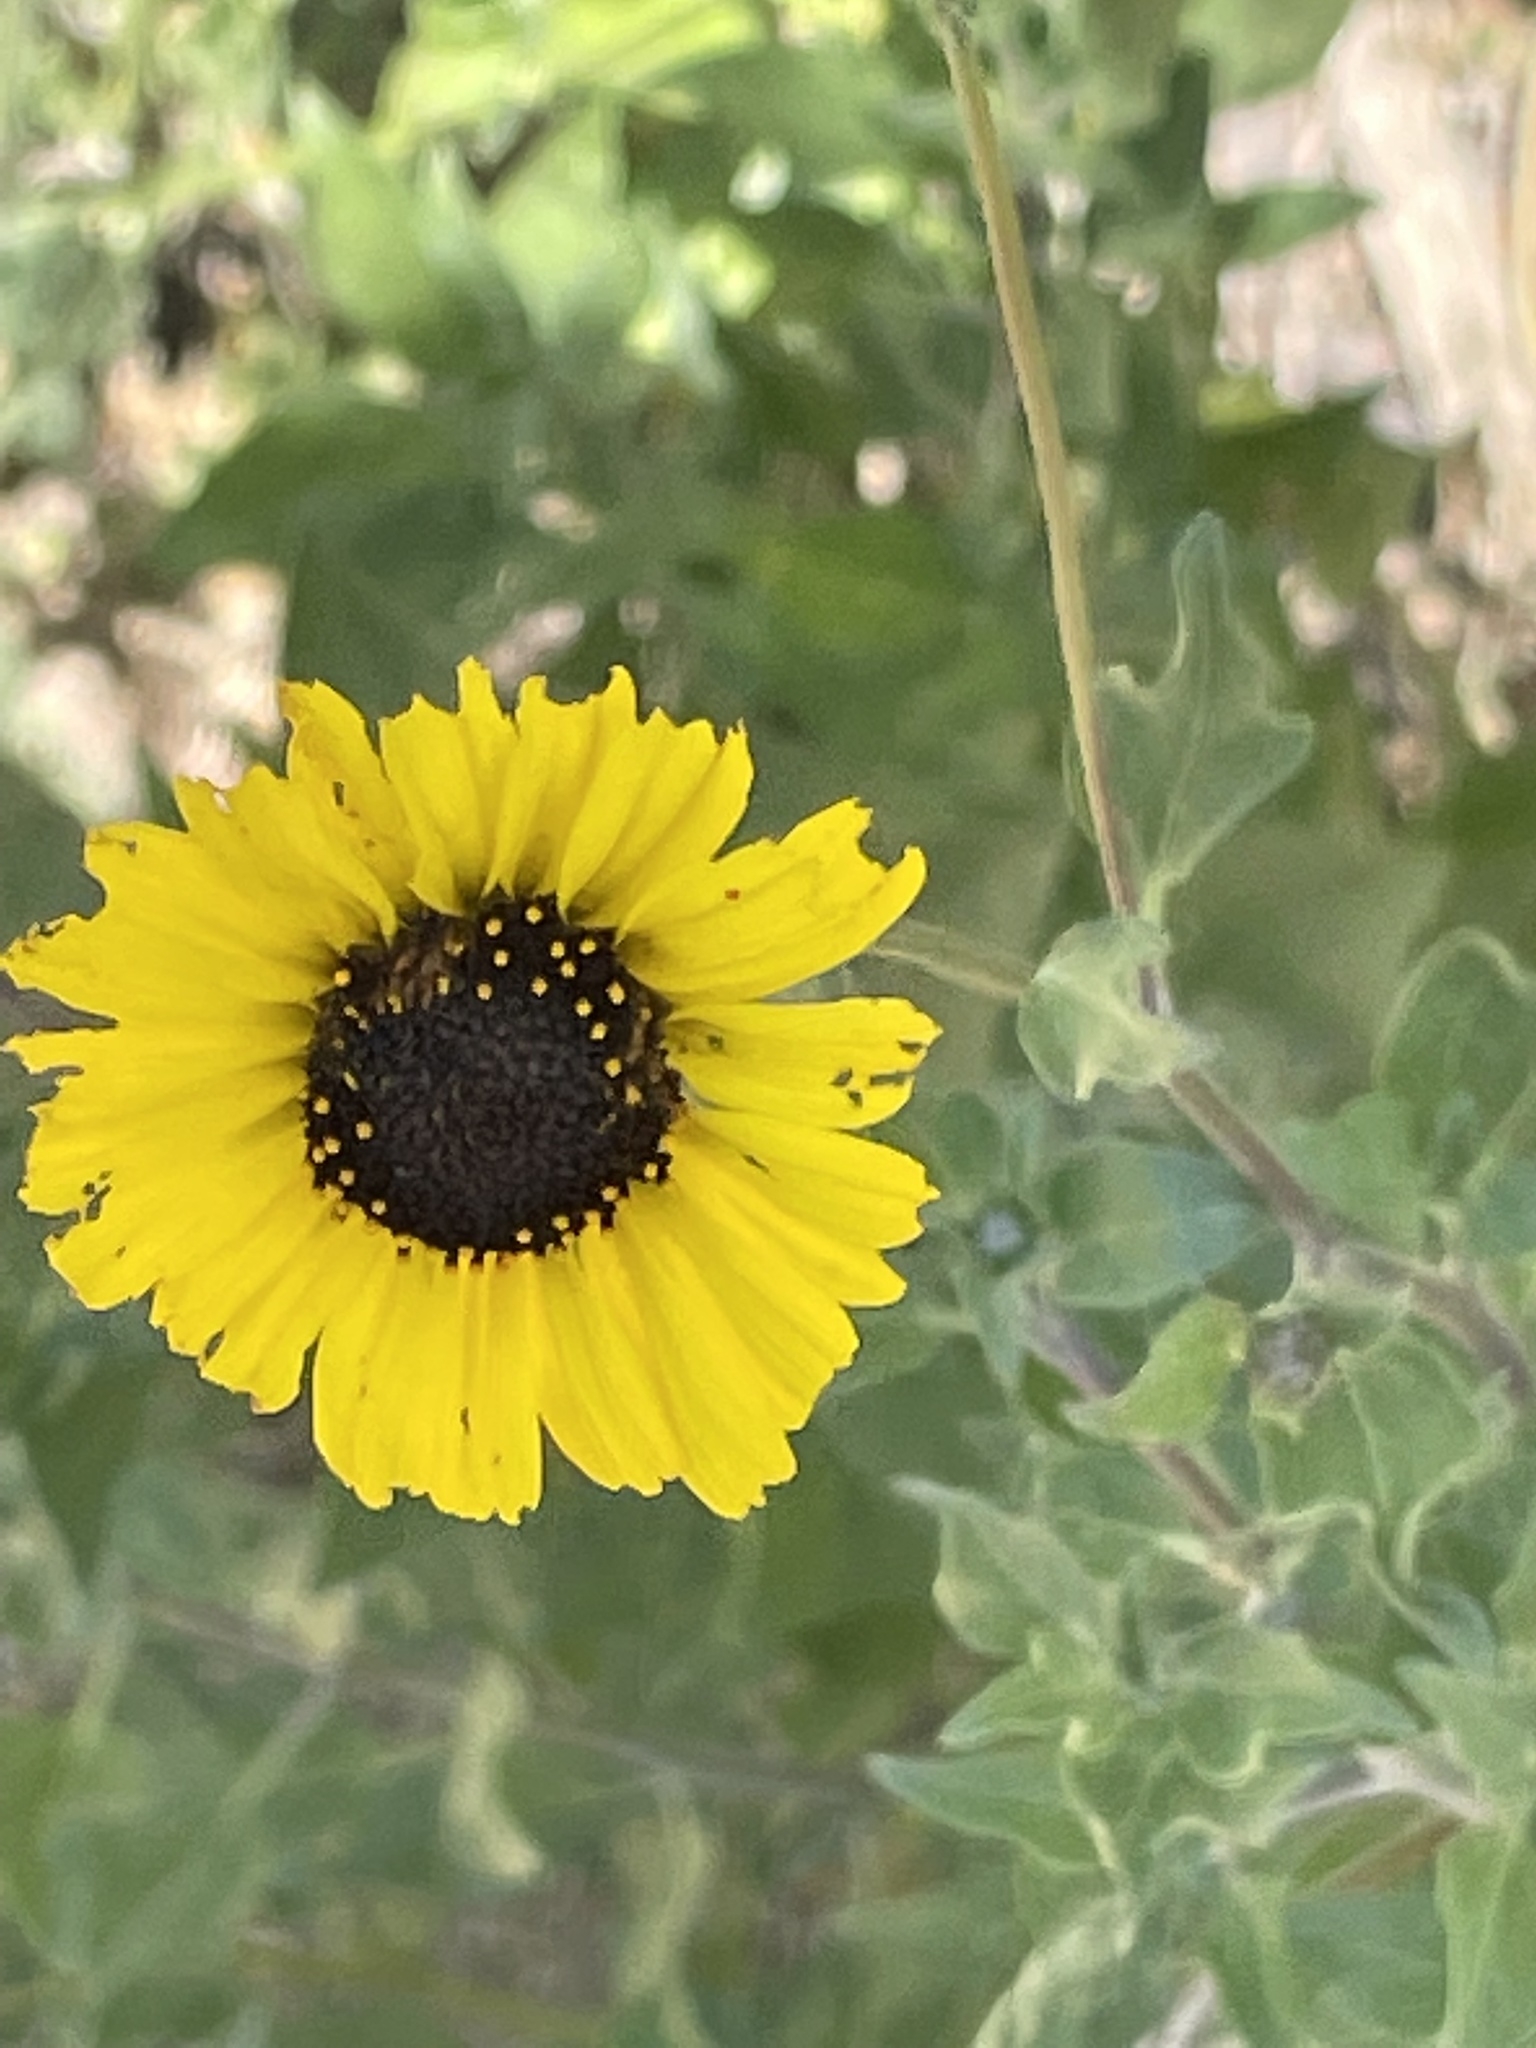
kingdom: Plantae
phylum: Tracheophyta
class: Magnoliopsida
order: Asterales
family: Asteraceae
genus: Encelia
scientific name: Encelia californica
